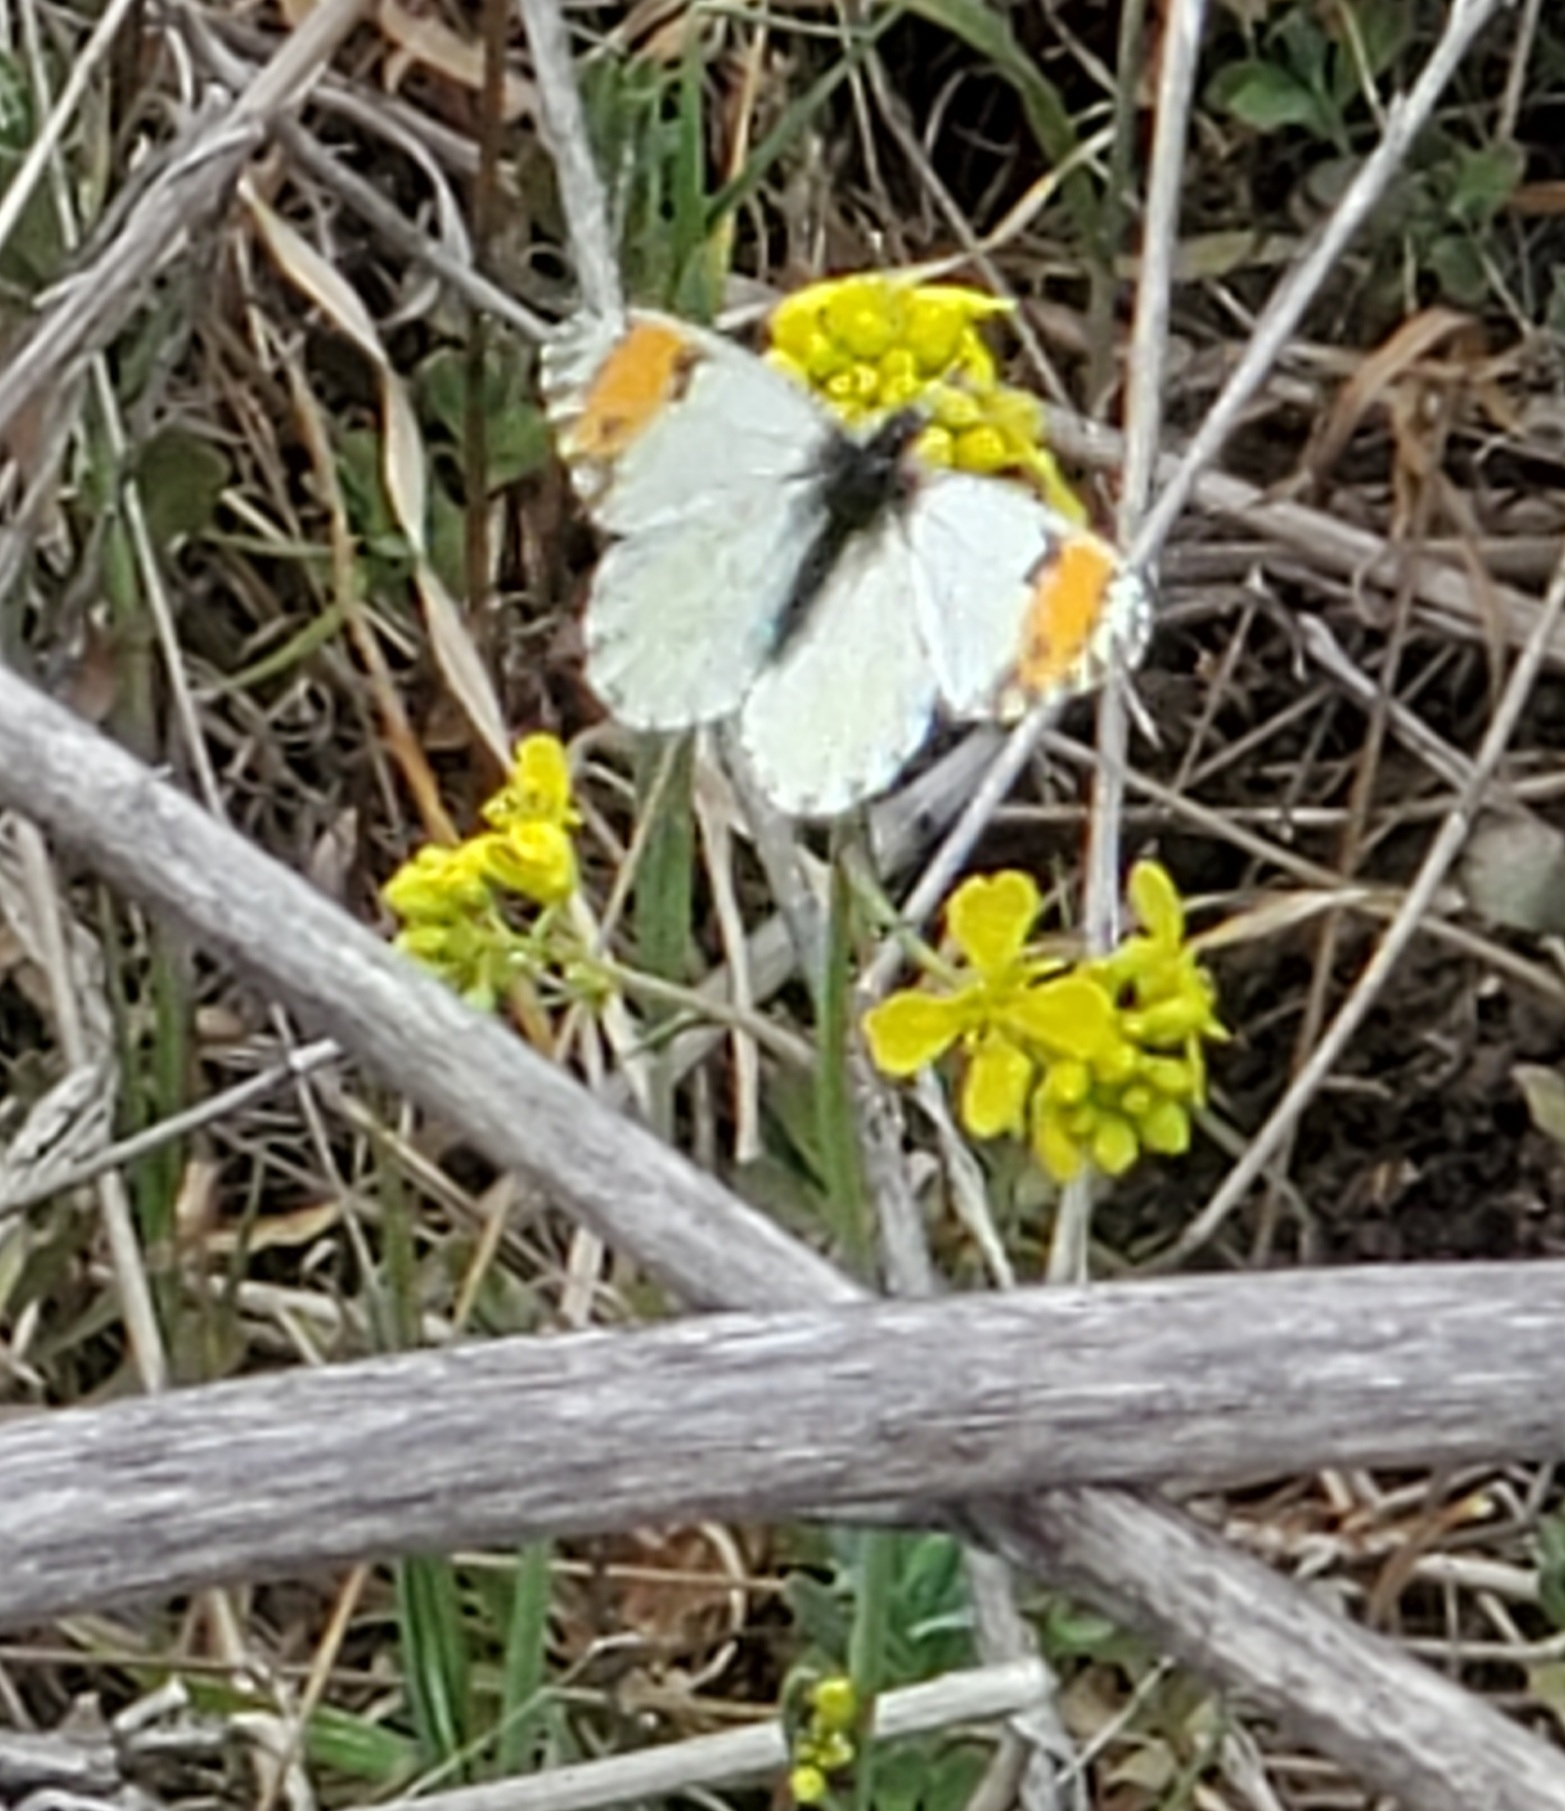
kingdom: Animalia
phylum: Arthropoda
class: Insecta
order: Lepidoptera
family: Pieridae
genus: Anthocharis
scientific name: Anthocharis sara
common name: Sara's orangetip
